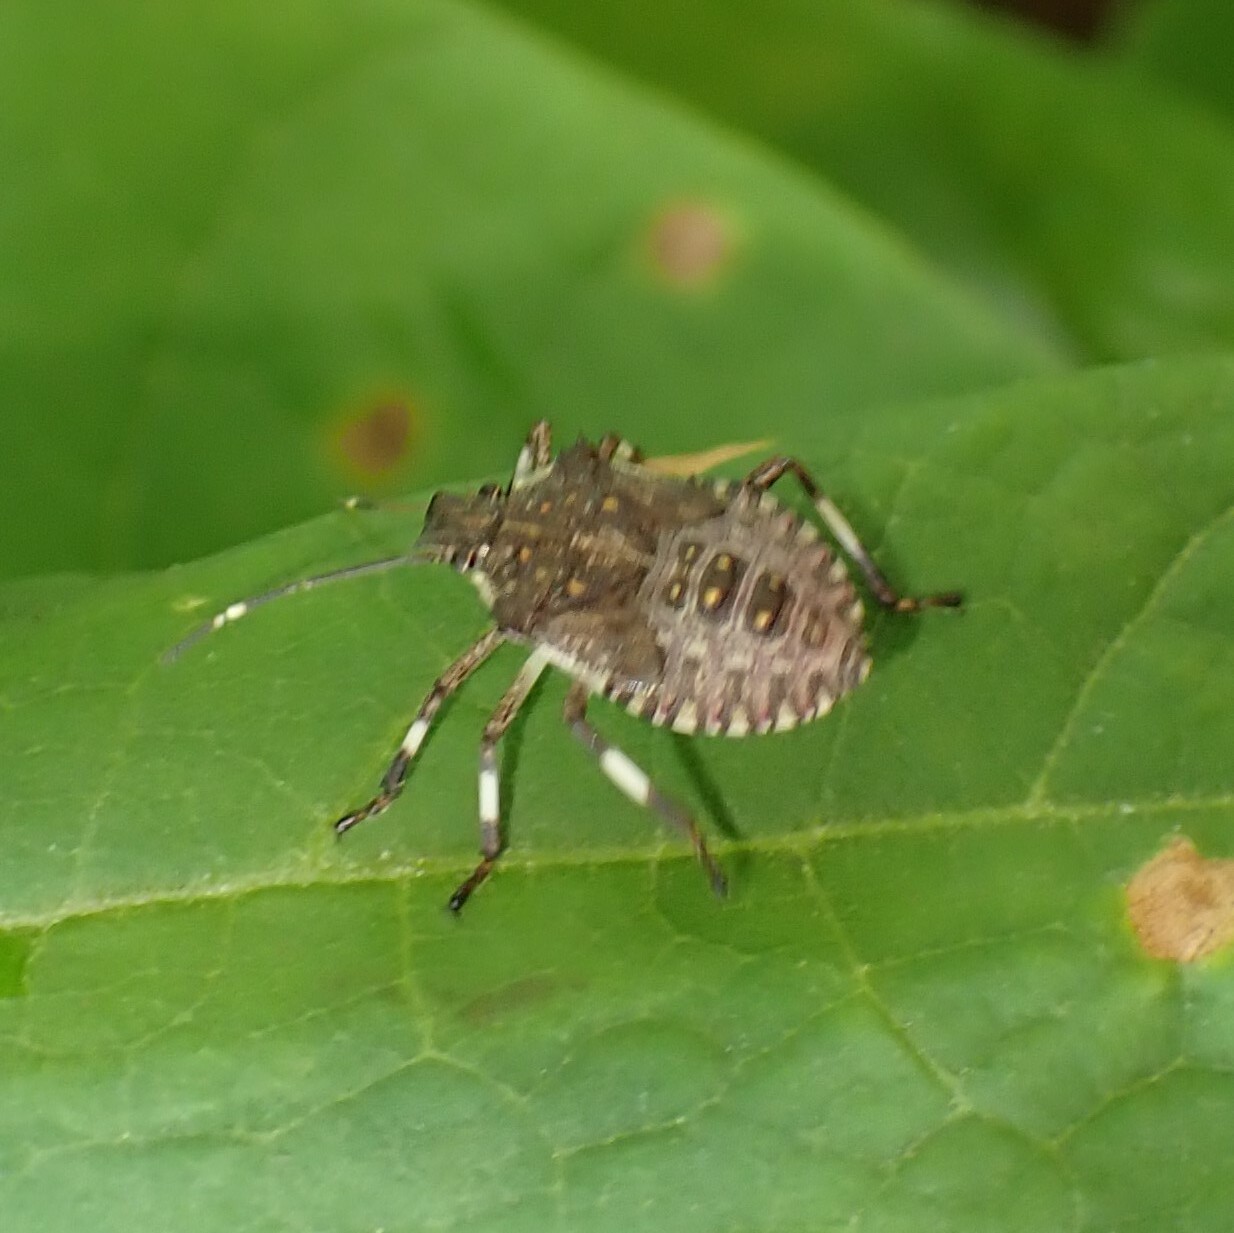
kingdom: Animalia
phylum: Arthropoda
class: Insecta
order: Hemiptera
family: Pentatomidae
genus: Halyomorpha
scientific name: Halyomorpha halys
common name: Brown marmorated stink bug
